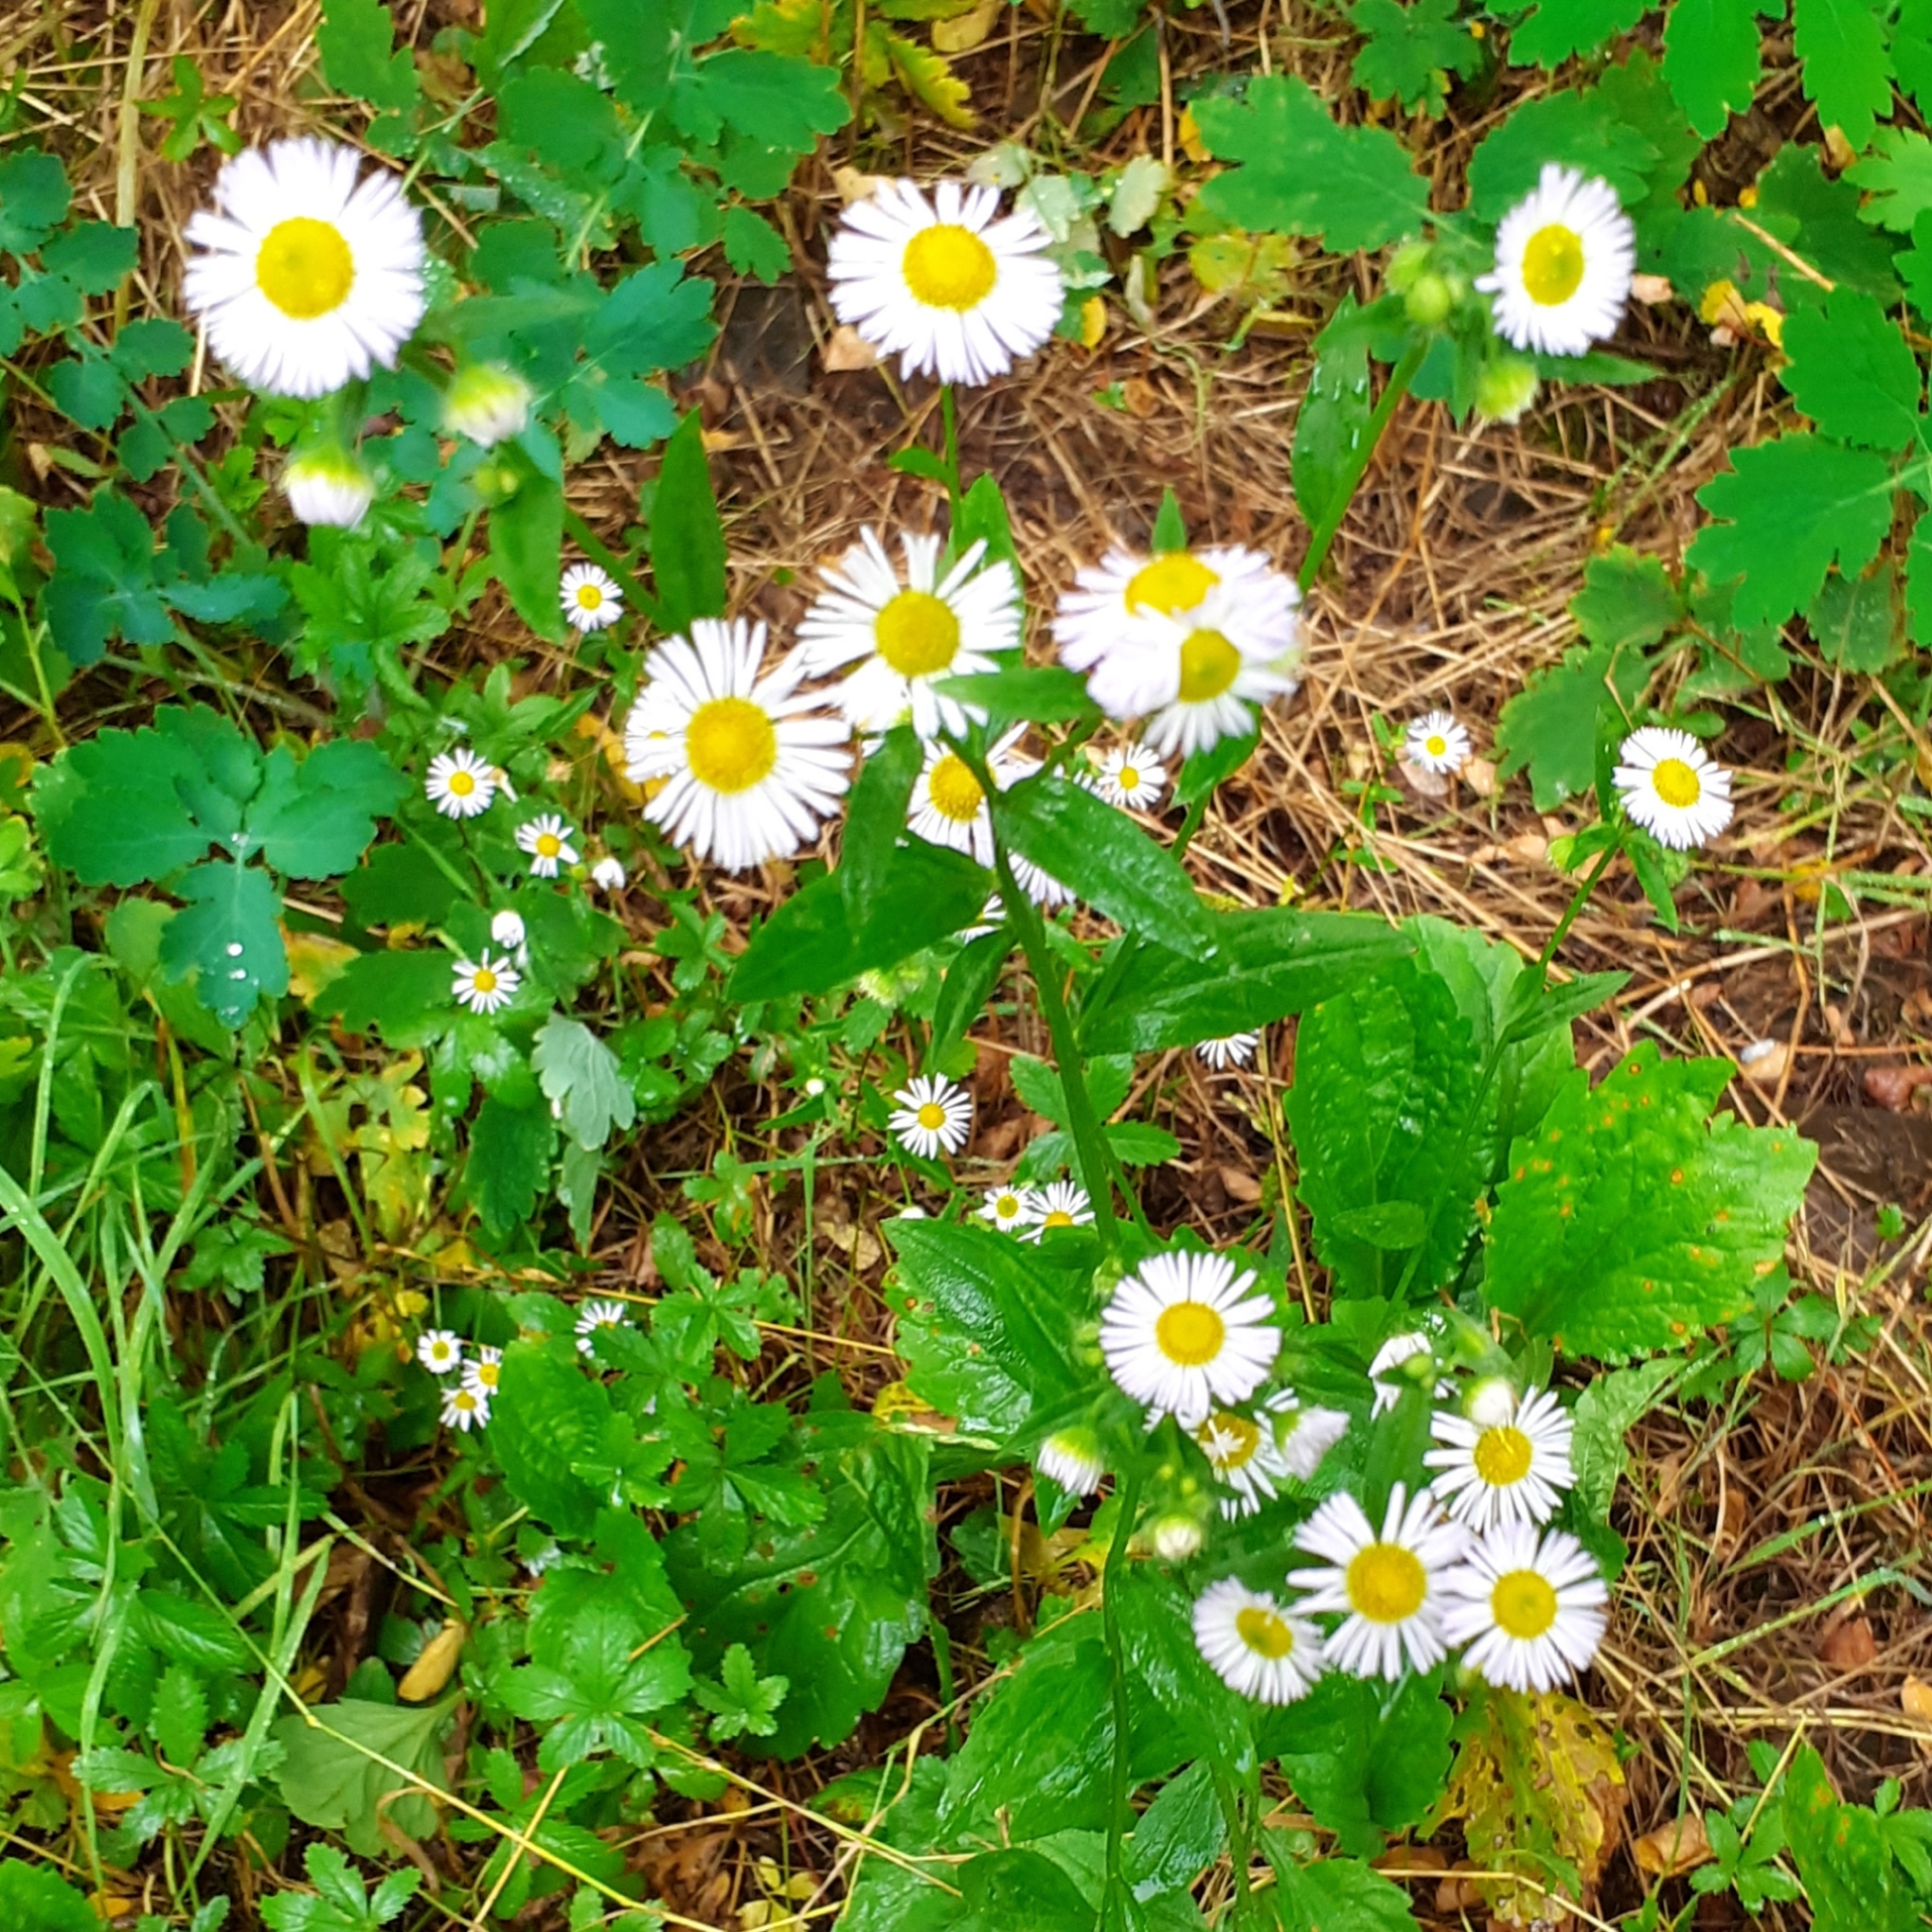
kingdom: Plantae
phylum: Tracheophyta
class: Magnoliopsida
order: Asterales
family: Asteraceae
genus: Erigeron
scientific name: Erigeron annuus
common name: Tall fleabane
